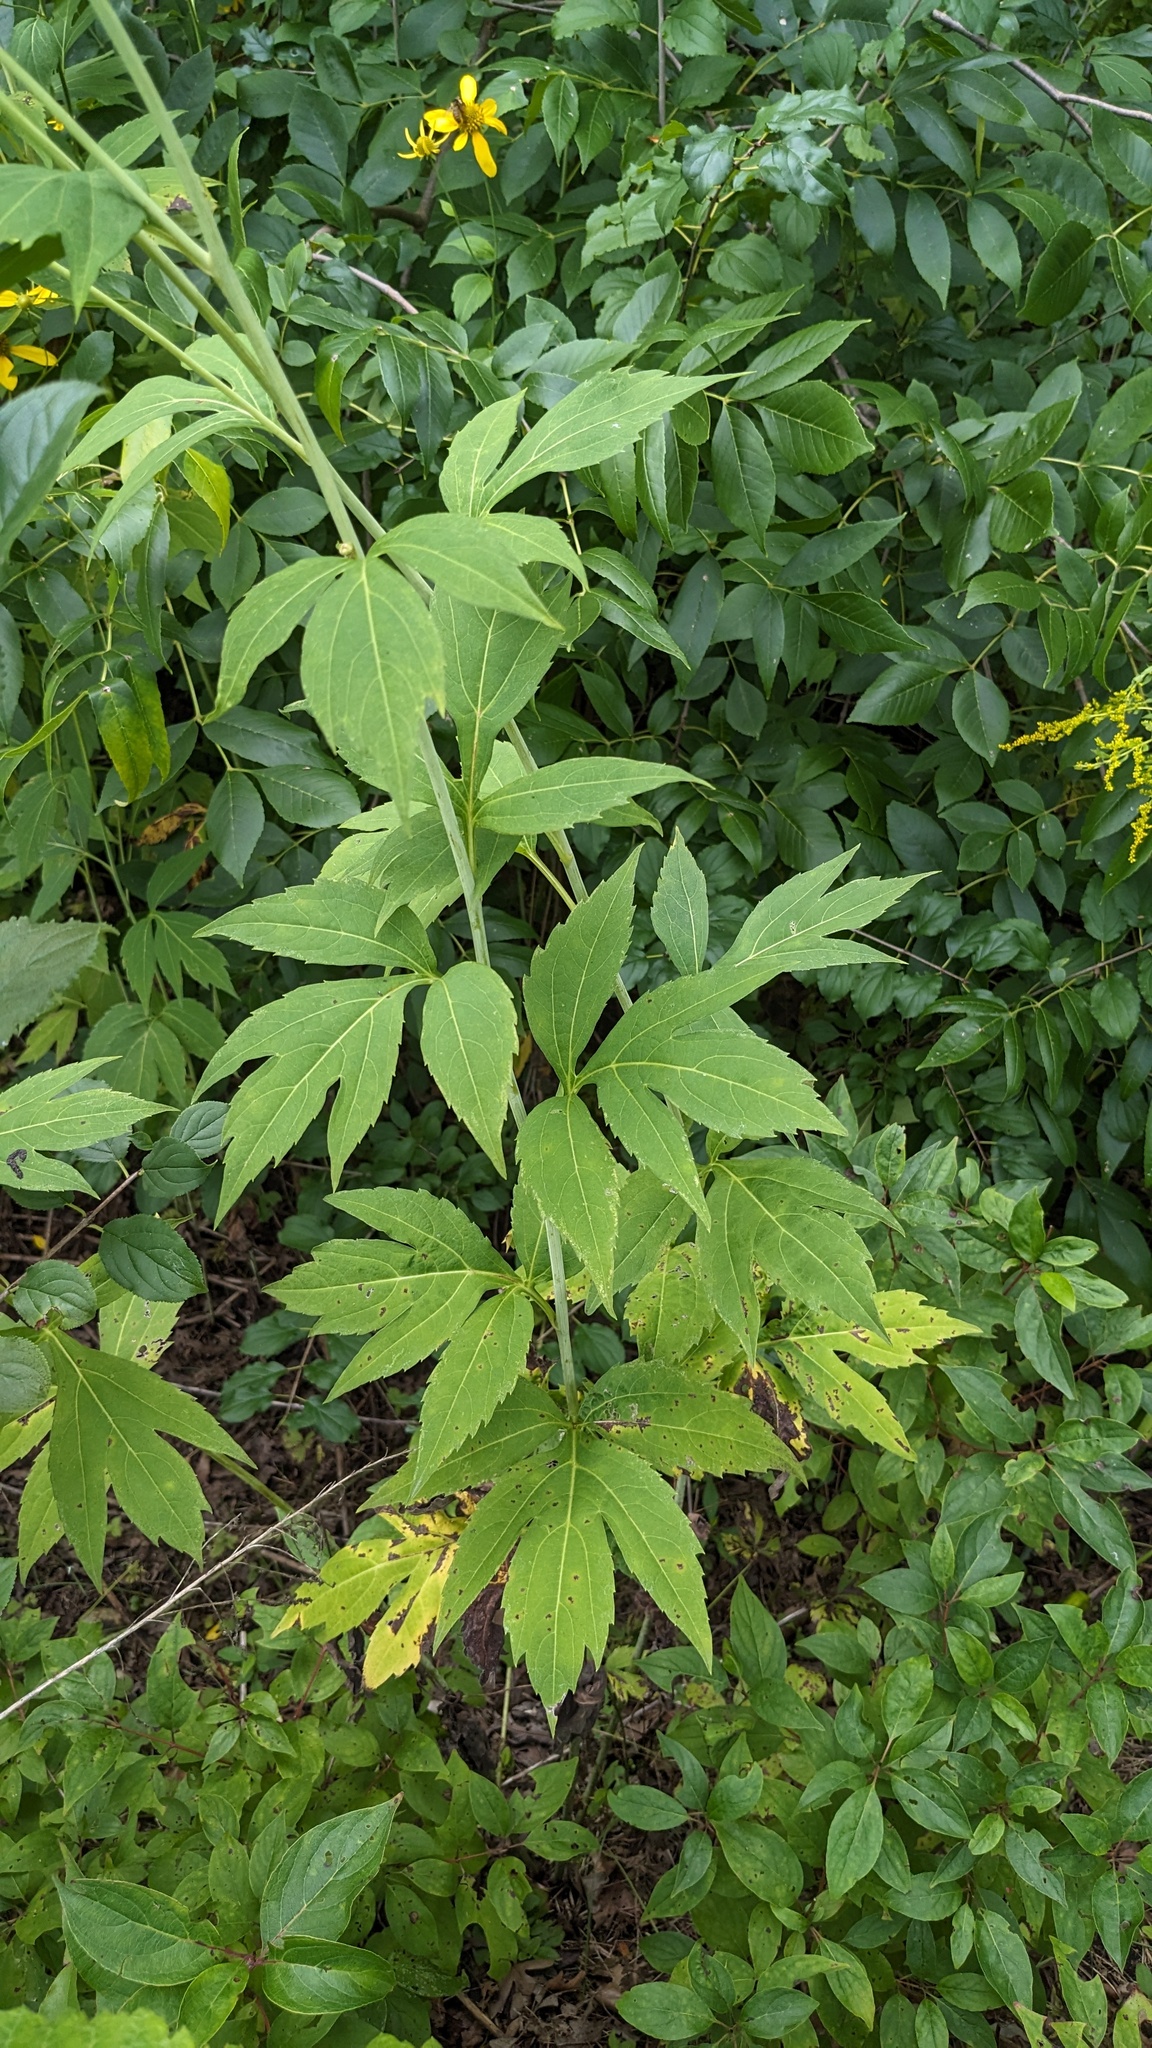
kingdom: Plantae
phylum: Tracheophyta
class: Magnoliopsida
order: Asterales
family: Asteraceae
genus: Rudbeckia
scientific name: Rudbeckia laciniata
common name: Coneflower
